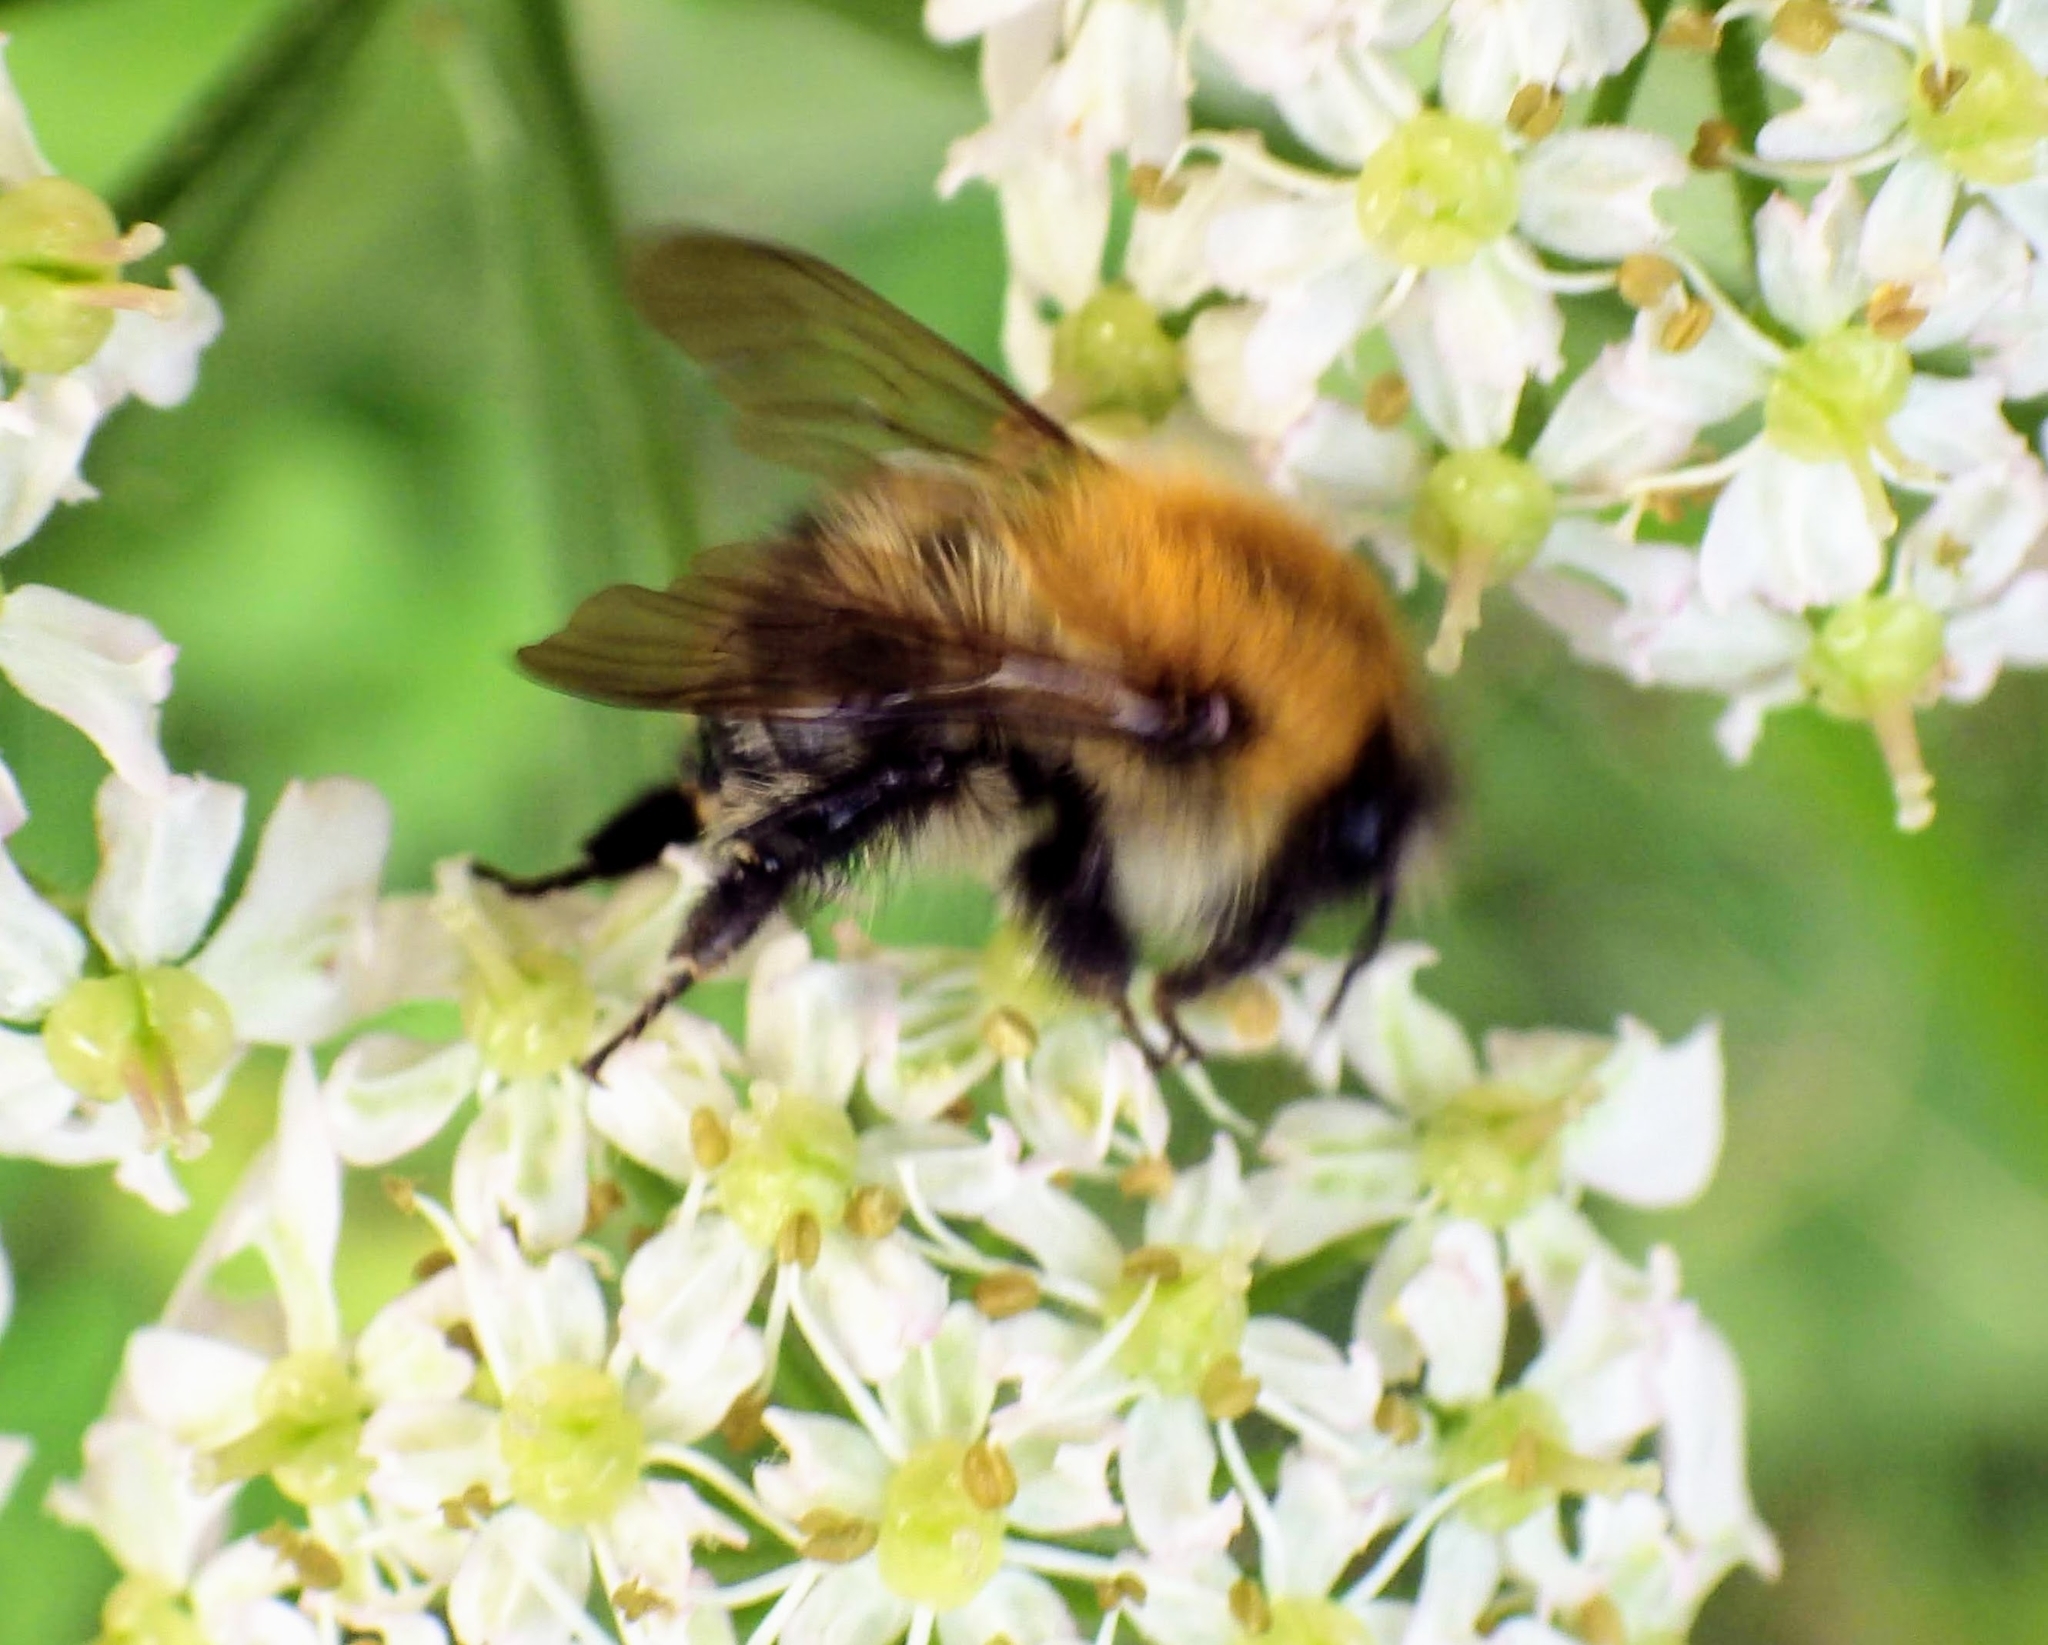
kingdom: Animalia
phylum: Arthropoda
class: Insecta
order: Hymenoptera
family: Apidae
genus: Bombus
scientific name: Bombus pascuorum
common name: Common carder bee
